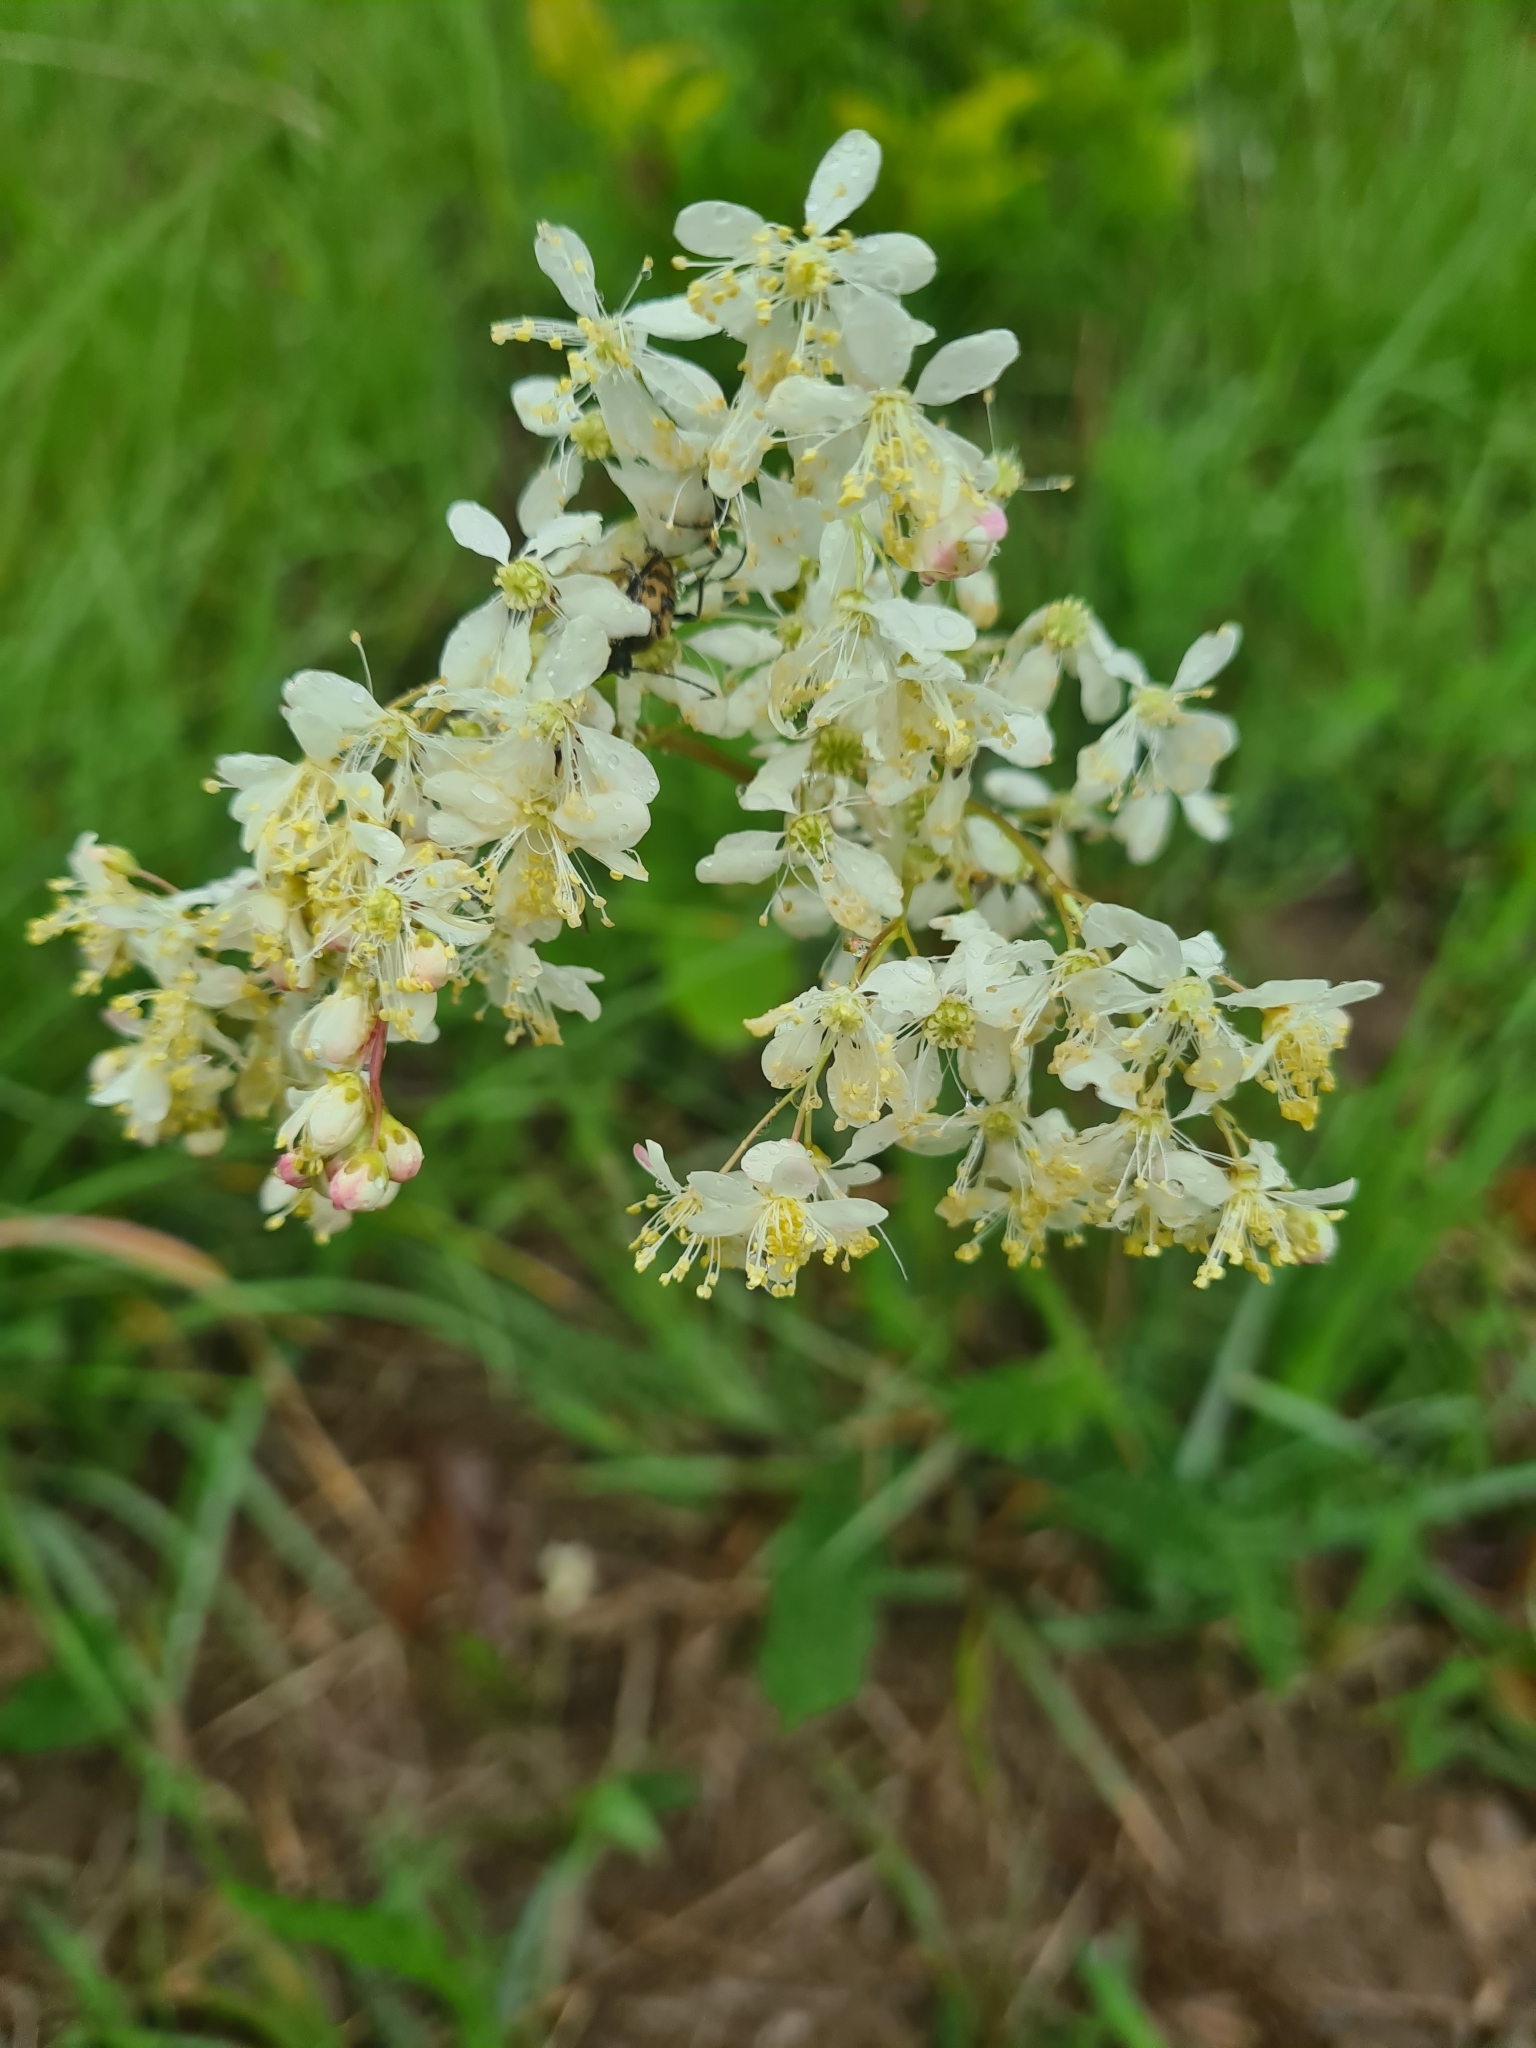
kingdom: Plantae
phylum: Tracheophyta
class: Magnoliopsida
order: Rosales
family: Rosaceae
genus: Filipendula
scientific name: Filipendula vulgaris
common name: Dropwort
